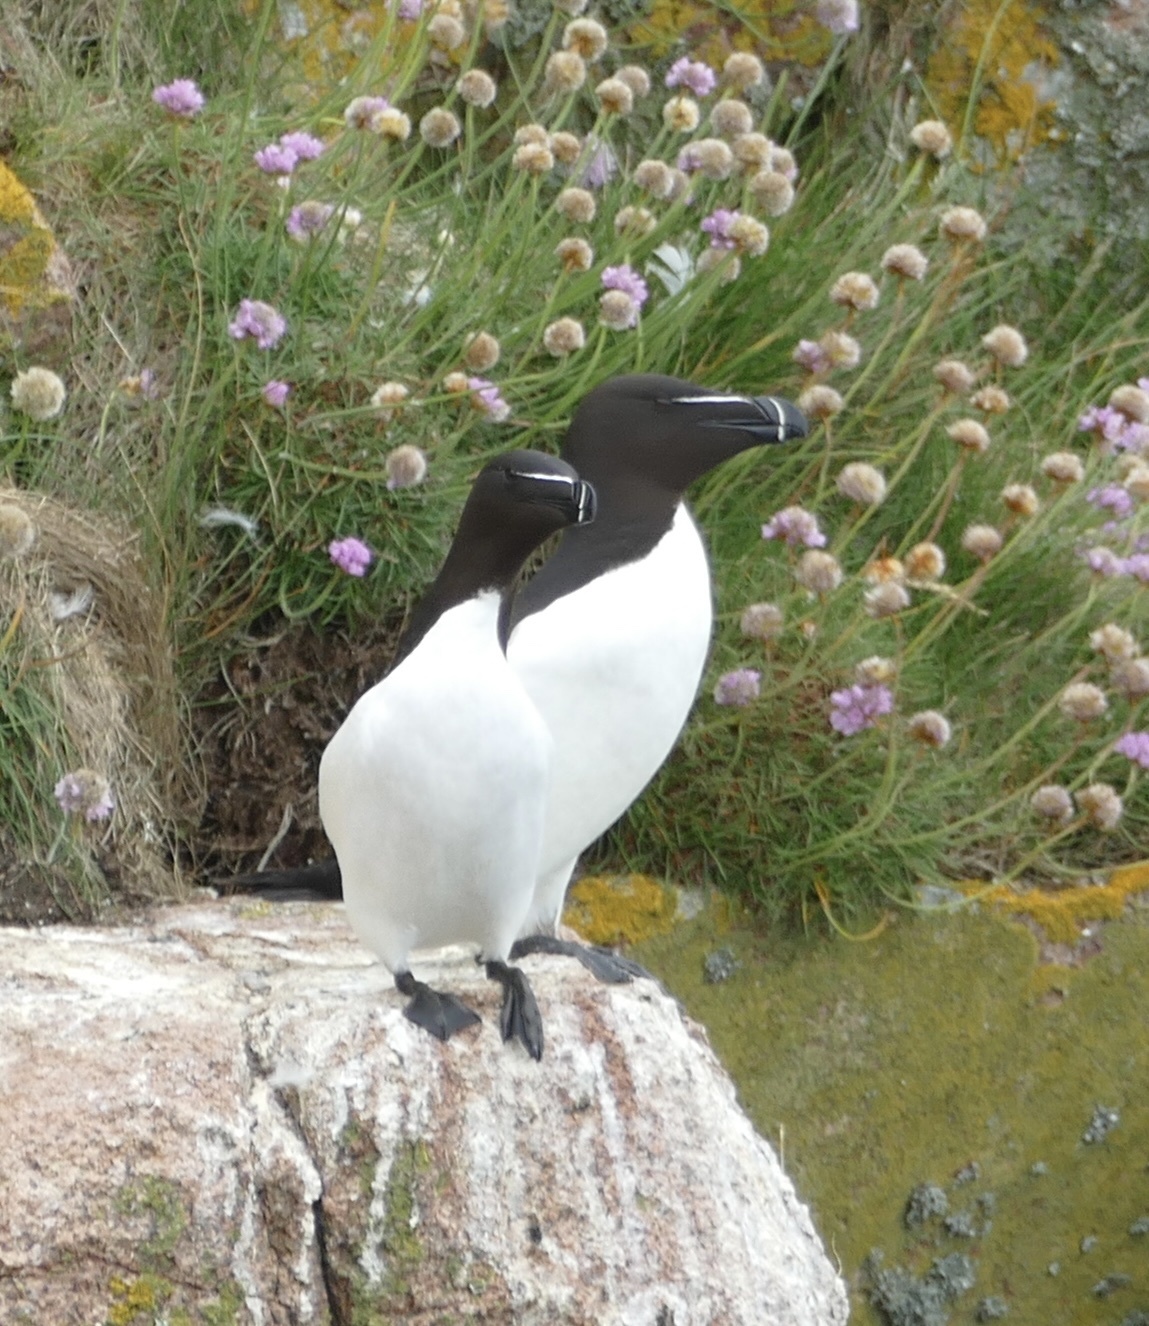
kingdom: Animalia
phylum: Chordata
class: Aves
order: Charadriiformes
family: Alcidae
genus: Alca
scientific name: Alca torda
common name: Razorbill
